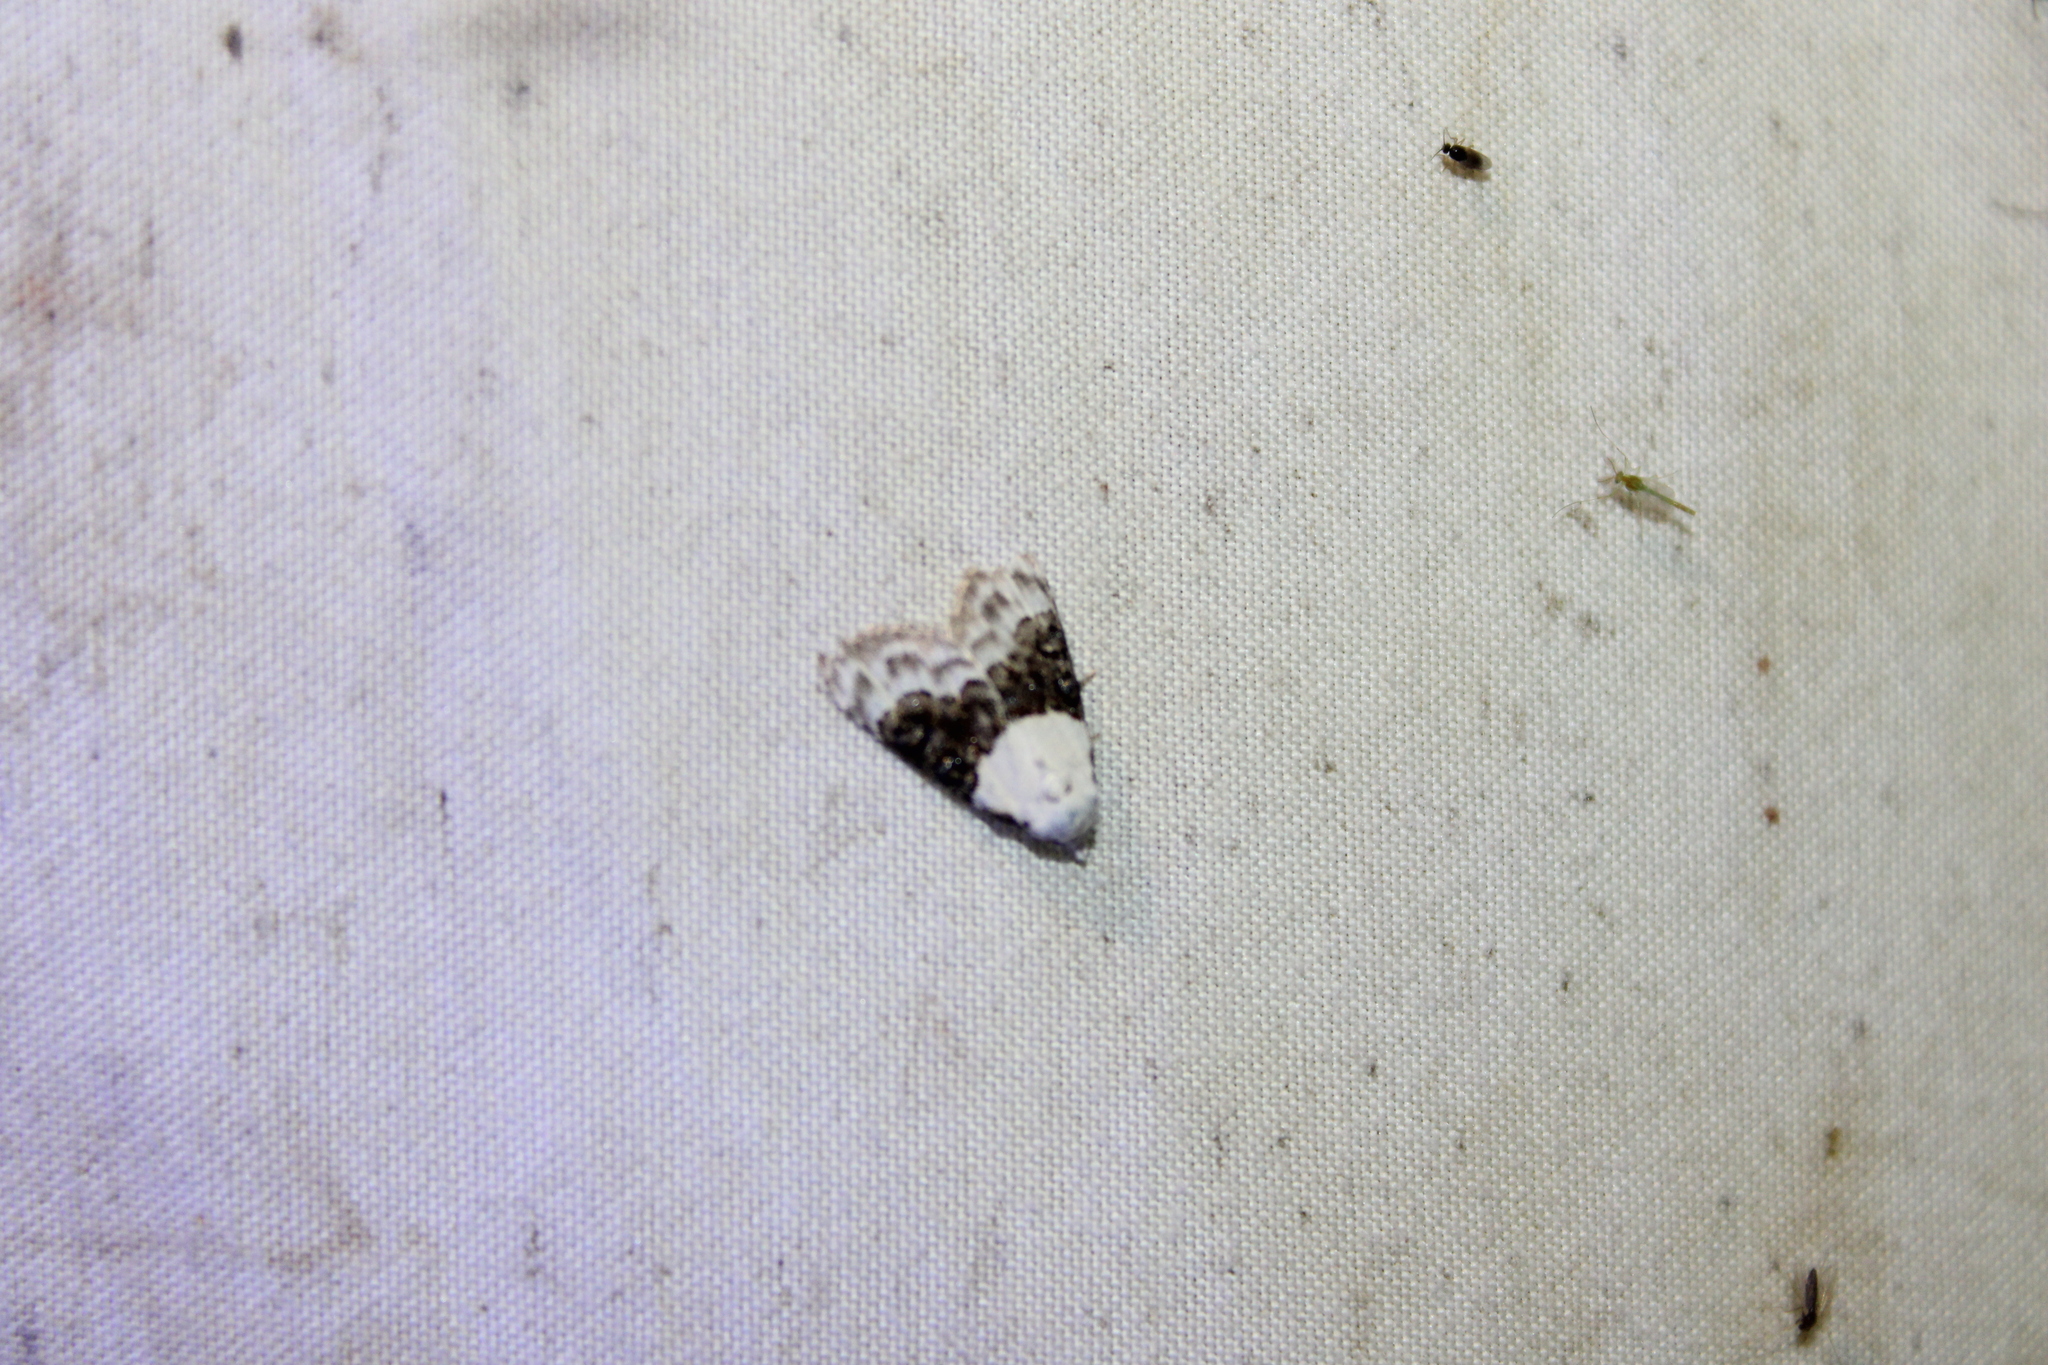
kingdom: Animalia
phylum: Arthropoda
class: Insecta
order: Lepidoptera
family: Nolidae
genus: Nola
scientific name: Nola pustulata
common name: Sharp-blotched nola moth
